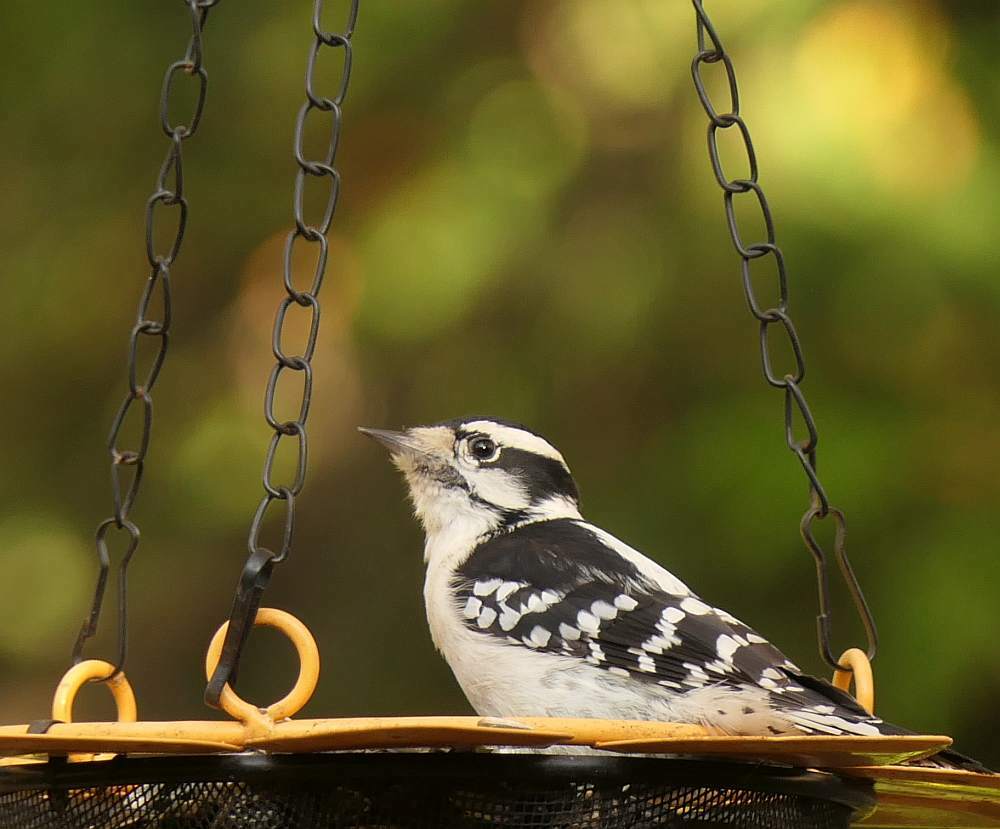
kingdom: Animalia
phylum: Chordata
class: Aves
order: Piciformes
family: Picidae
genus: Dryobates
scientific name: Dryobates pubescens
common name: Downy woodpecker
